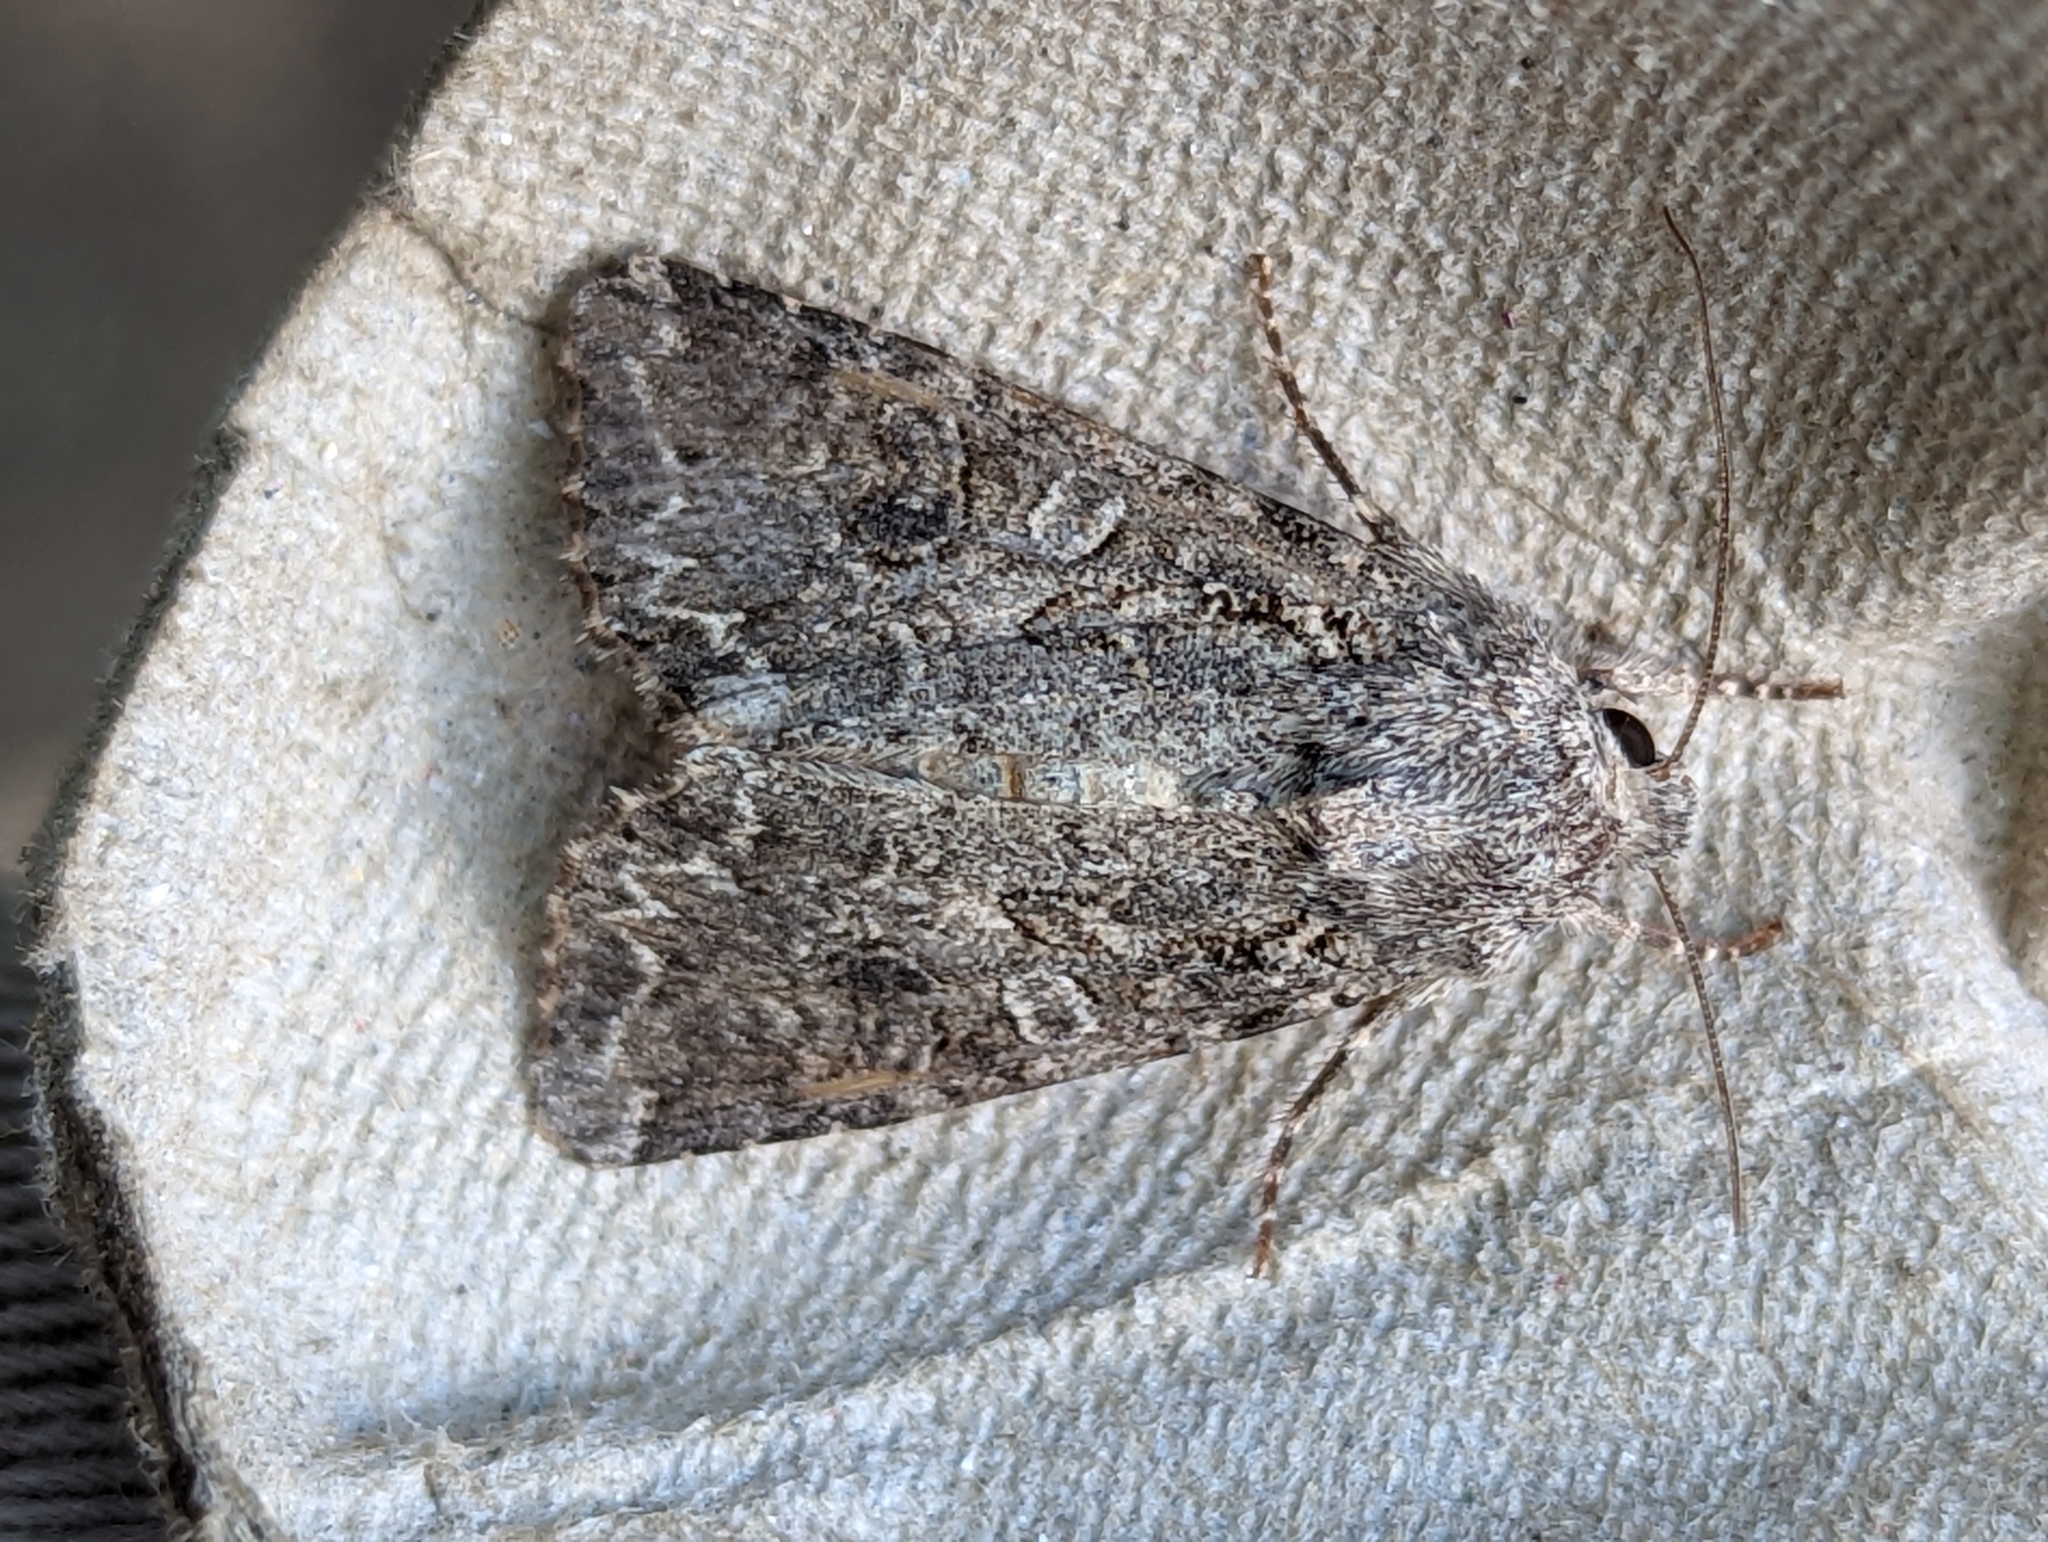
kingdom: Animalia
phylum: Arthropoda
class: Insecta
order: Lepidoptera
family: Noctuidae
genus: Anarta
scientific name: Anarta trifolii
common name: Clover cutworm moth
